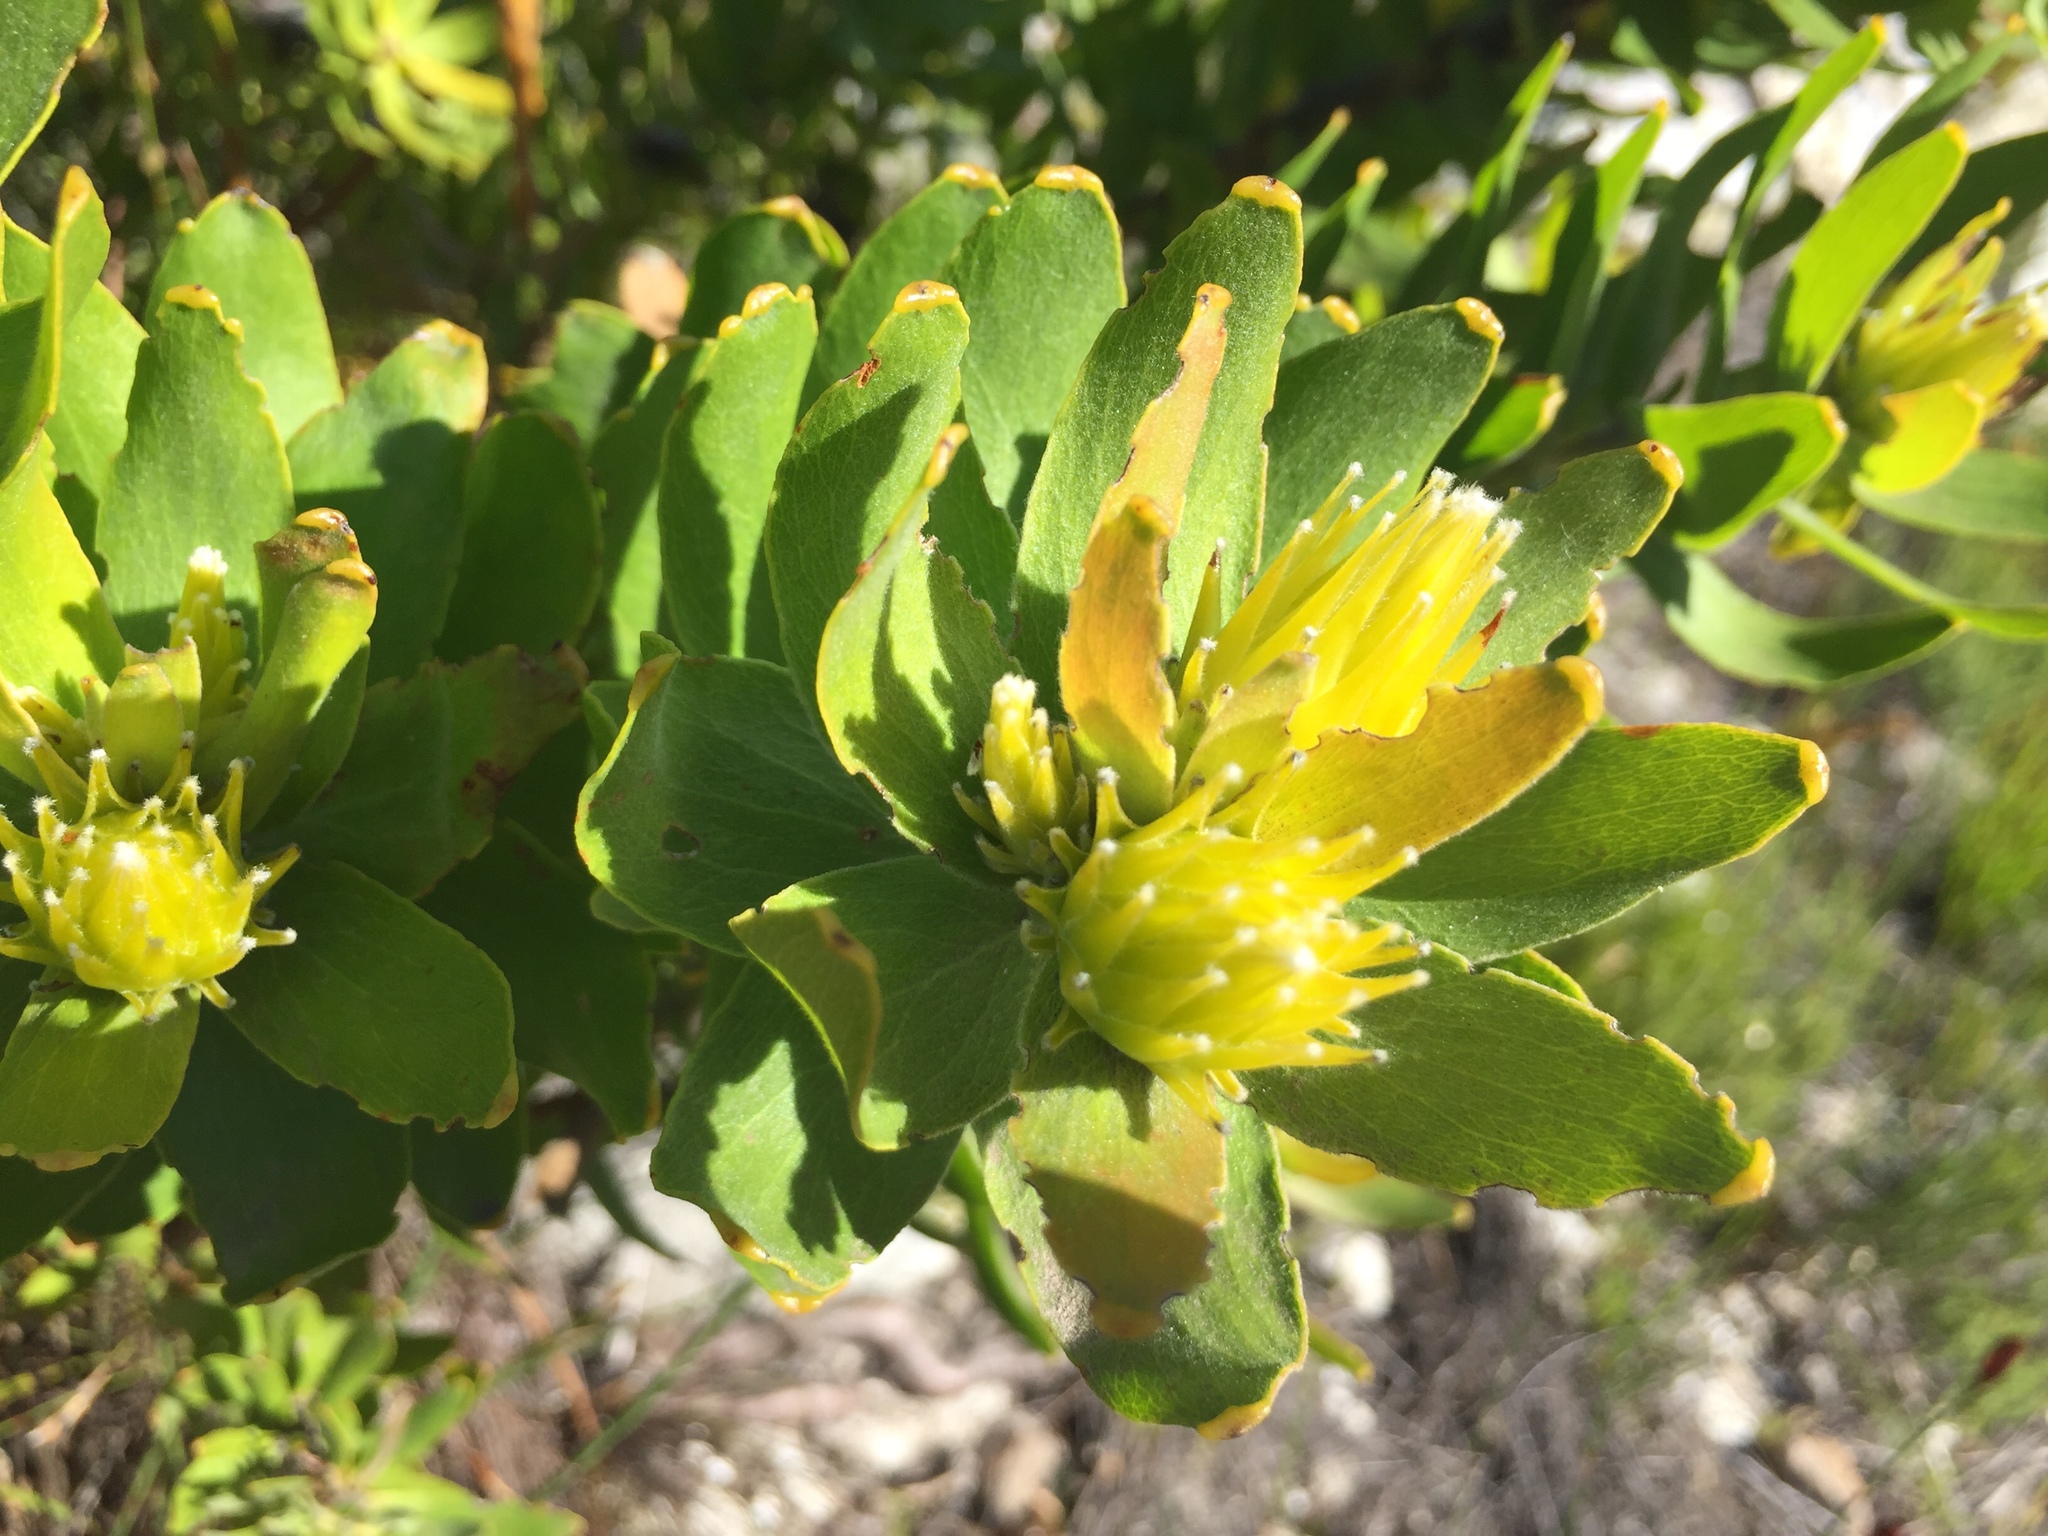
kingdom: Plantae
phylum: Tracheophyta
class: Magnoliopsida
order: Proteales
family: Proteaceae
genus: Leucospermum
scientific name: Leucospermum oleifolium
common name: Matches
